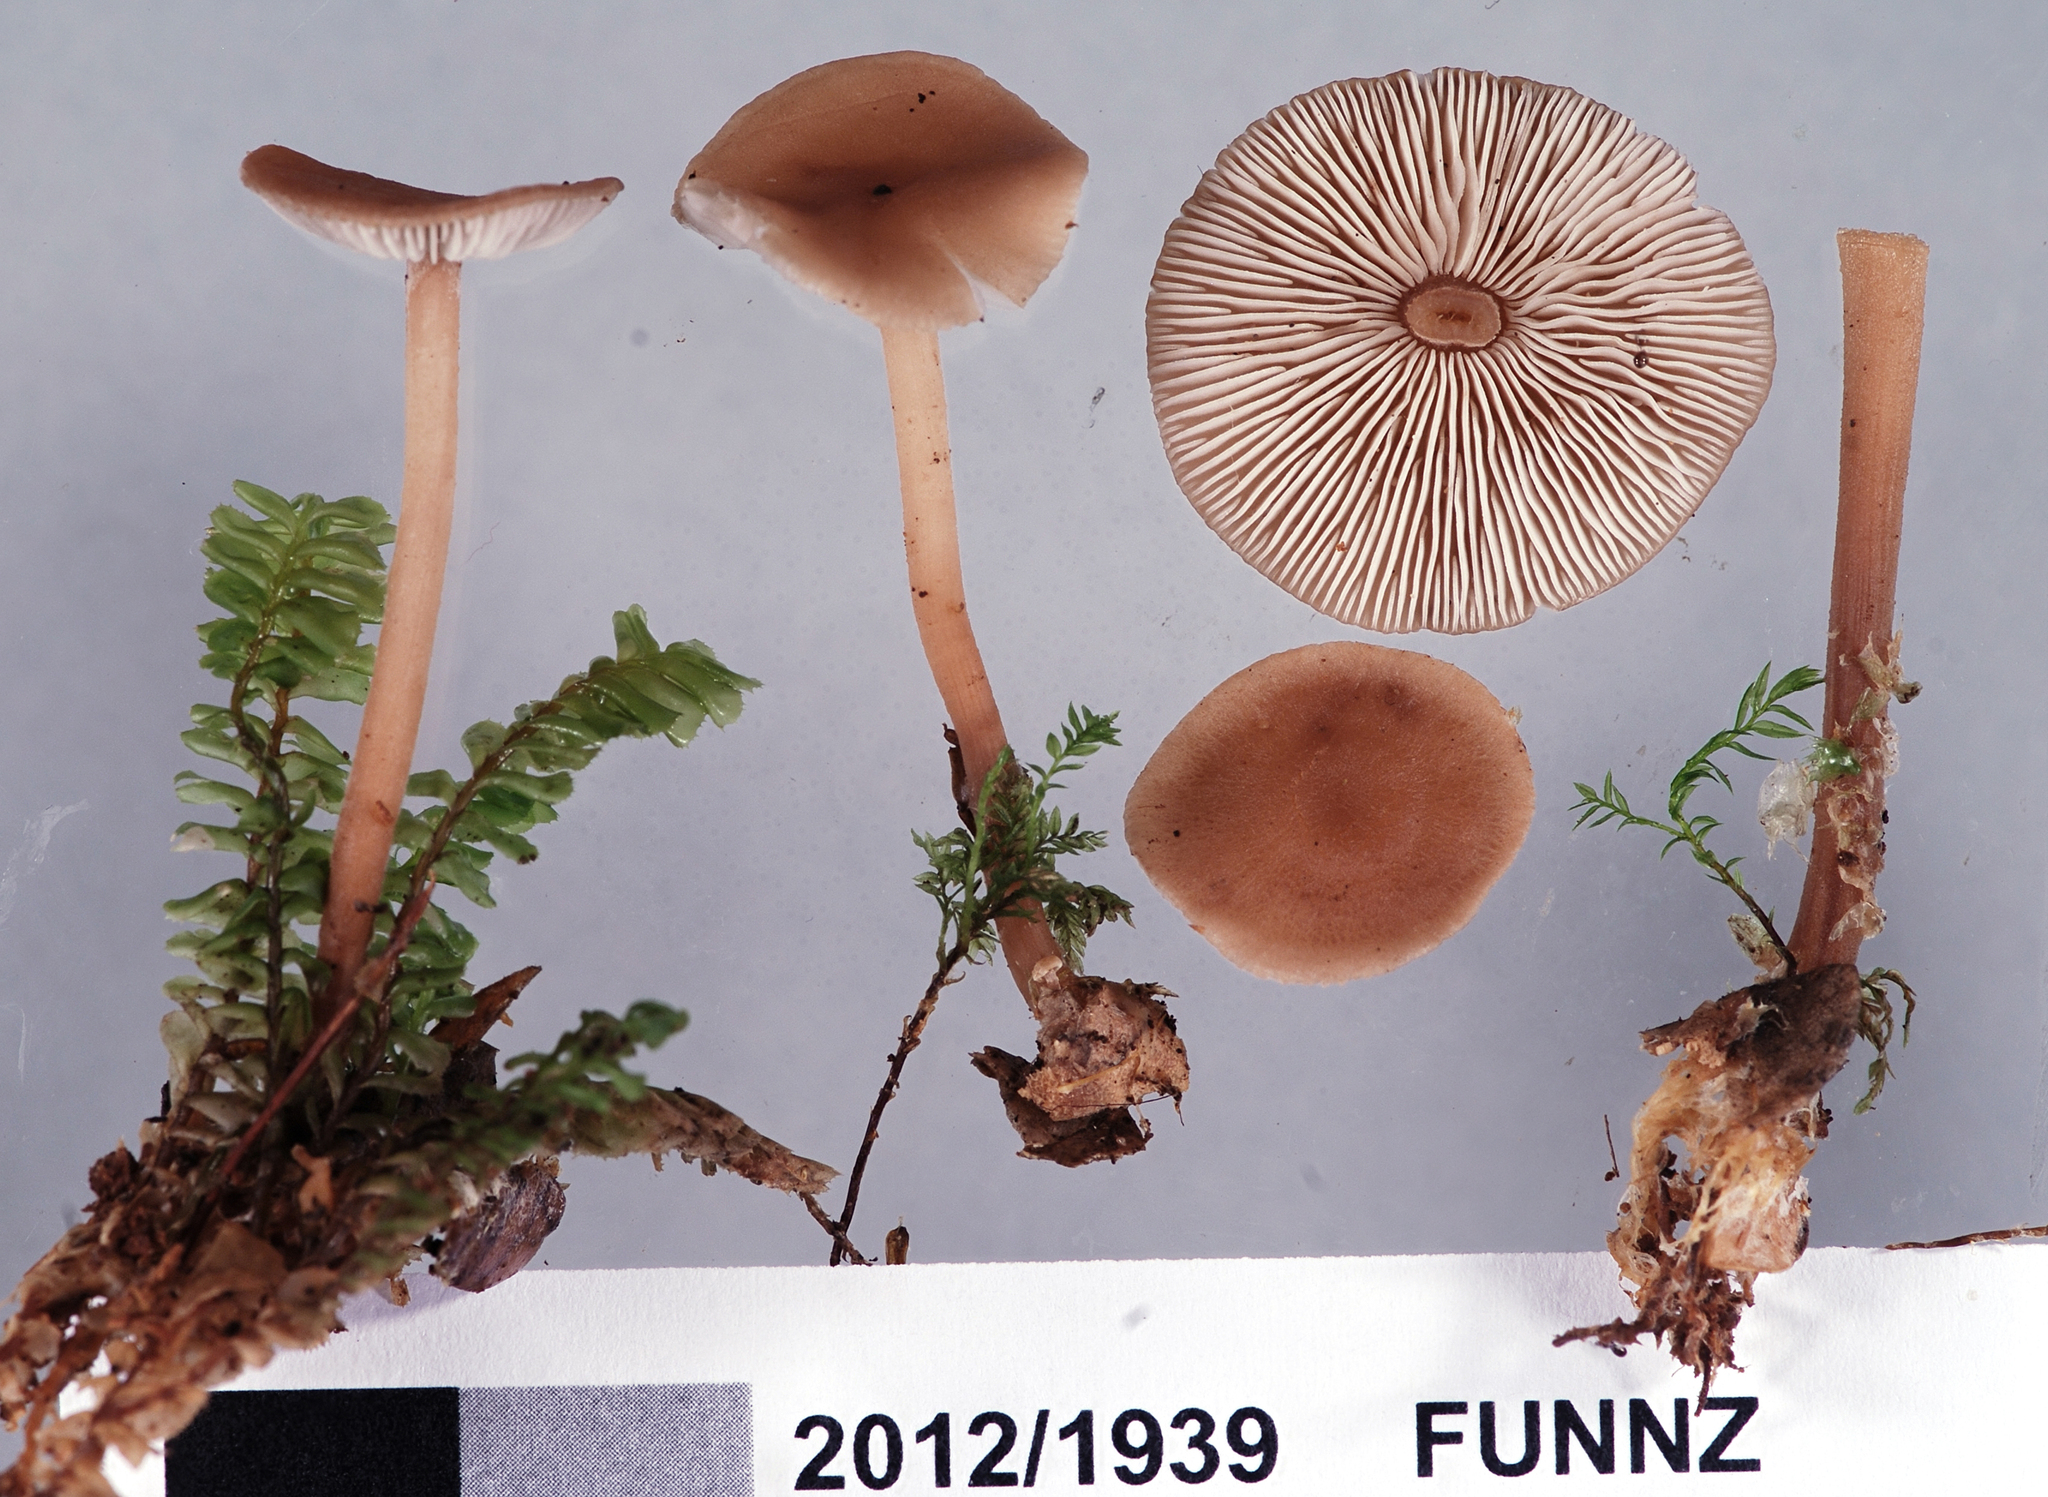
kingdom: Fungi
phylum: Basidiomycota
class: Agaricomycetes
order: Agaricales
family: Omphalotaceae
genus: Collybiopsis
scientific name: Collybiopsis rimutaka
